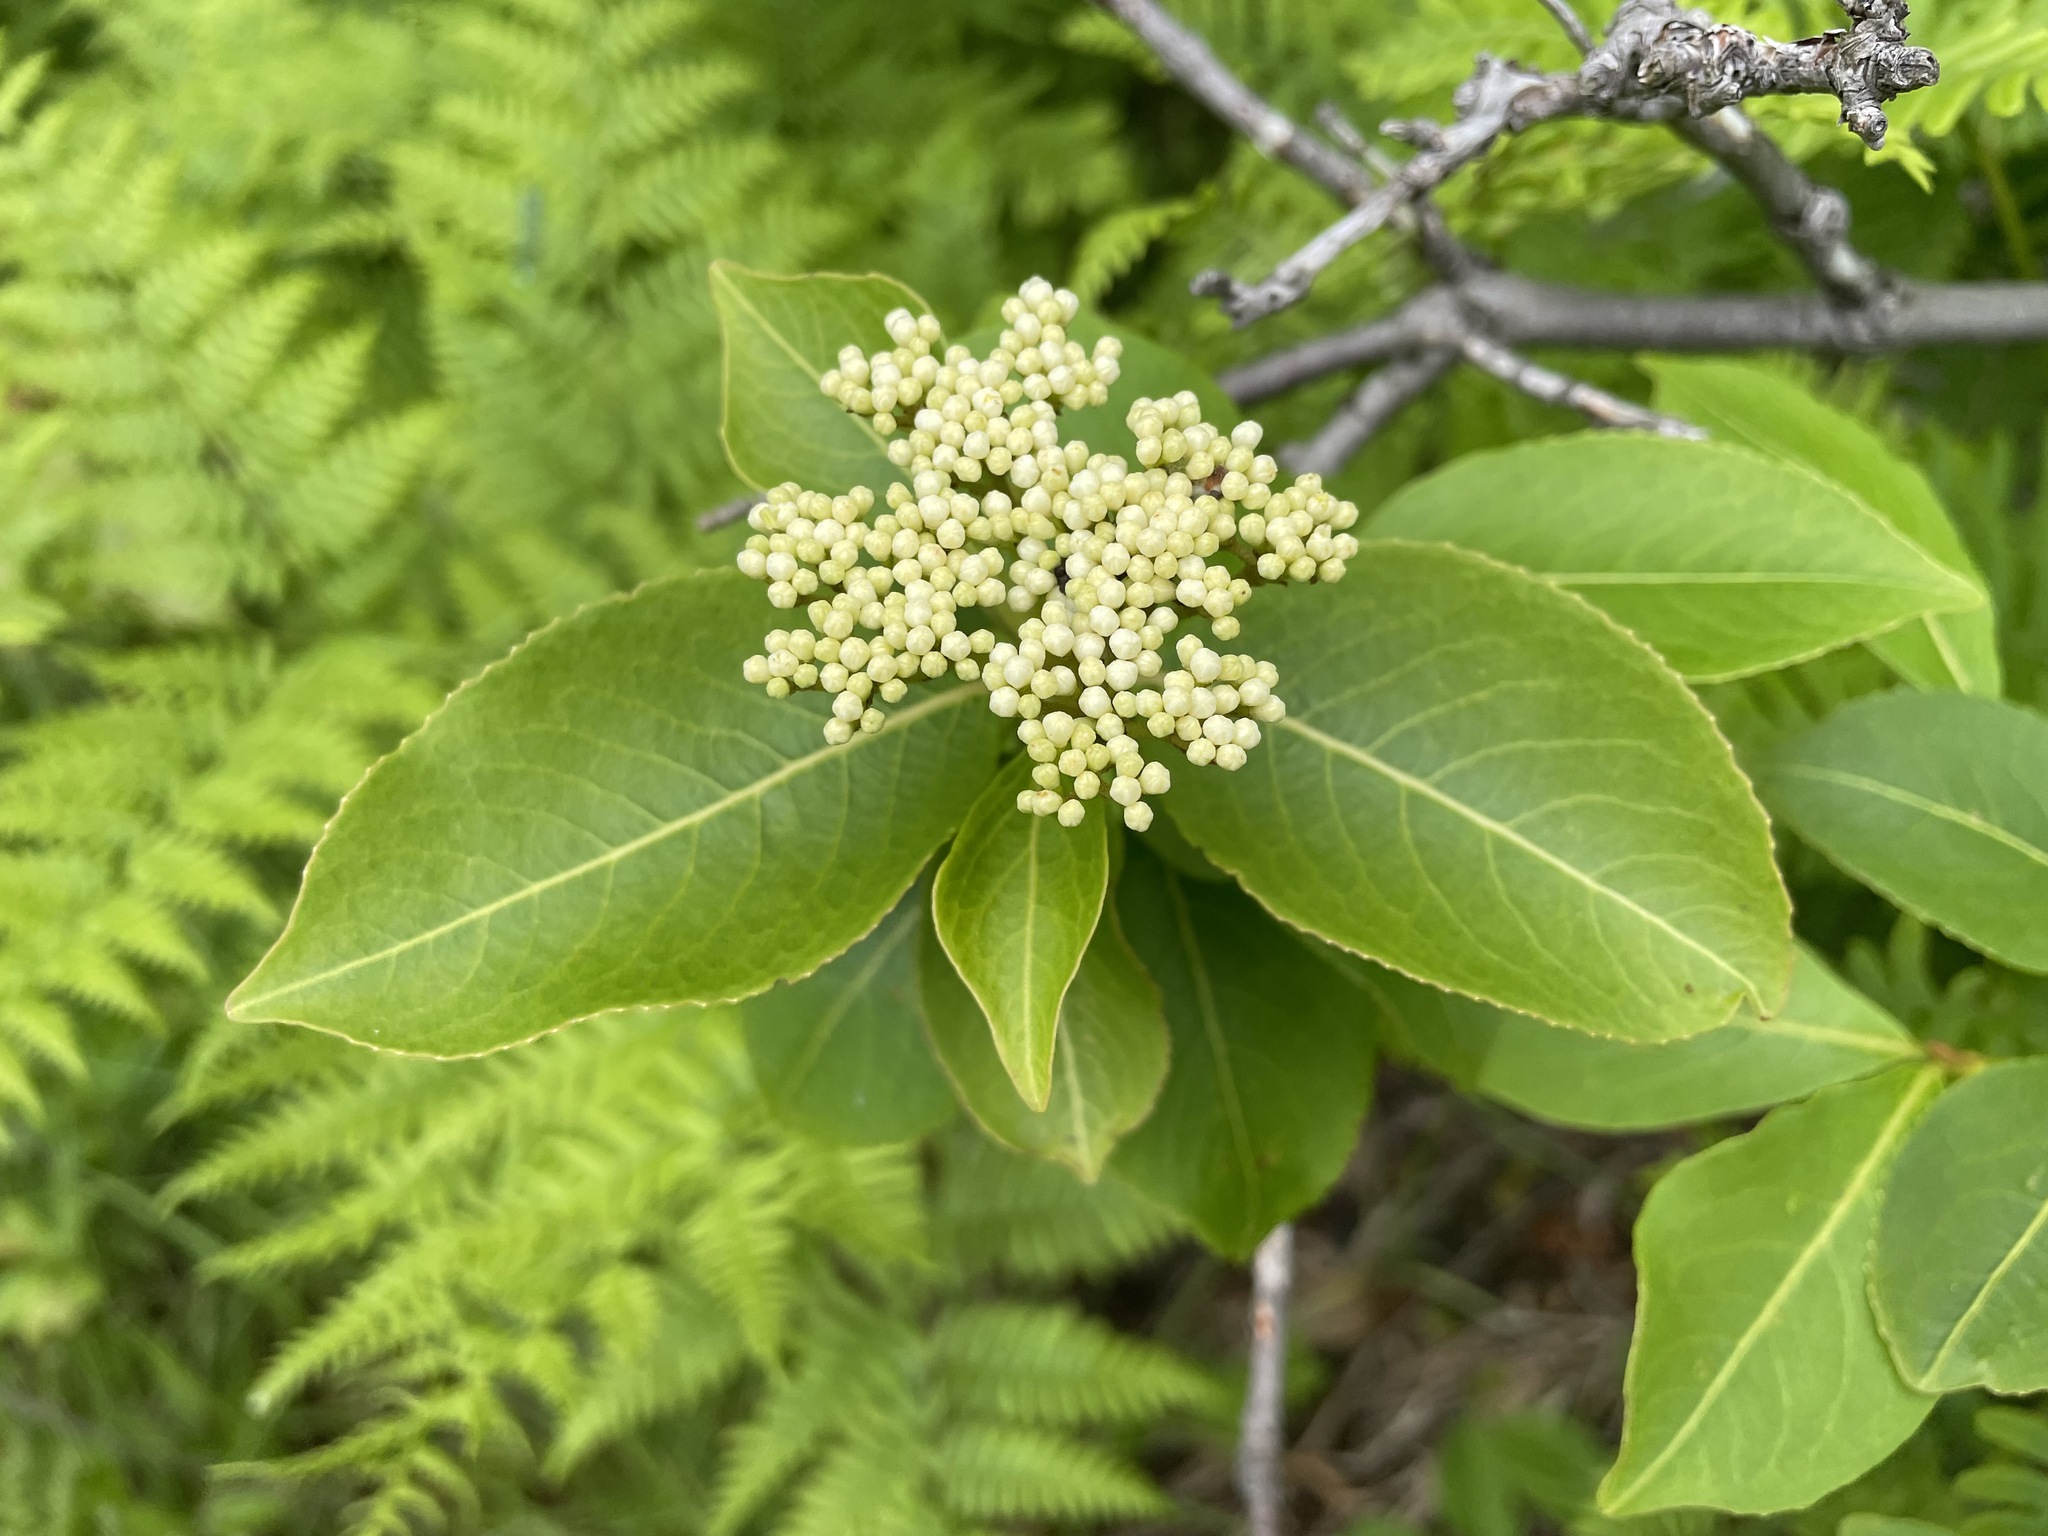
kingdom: Plantae
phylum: Tracheophyta
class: Magnoliopsida
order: Dipsacales
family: Viburnaceae
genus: Viburnum
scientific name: Viburnum cassinoides
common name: Swamp haw
